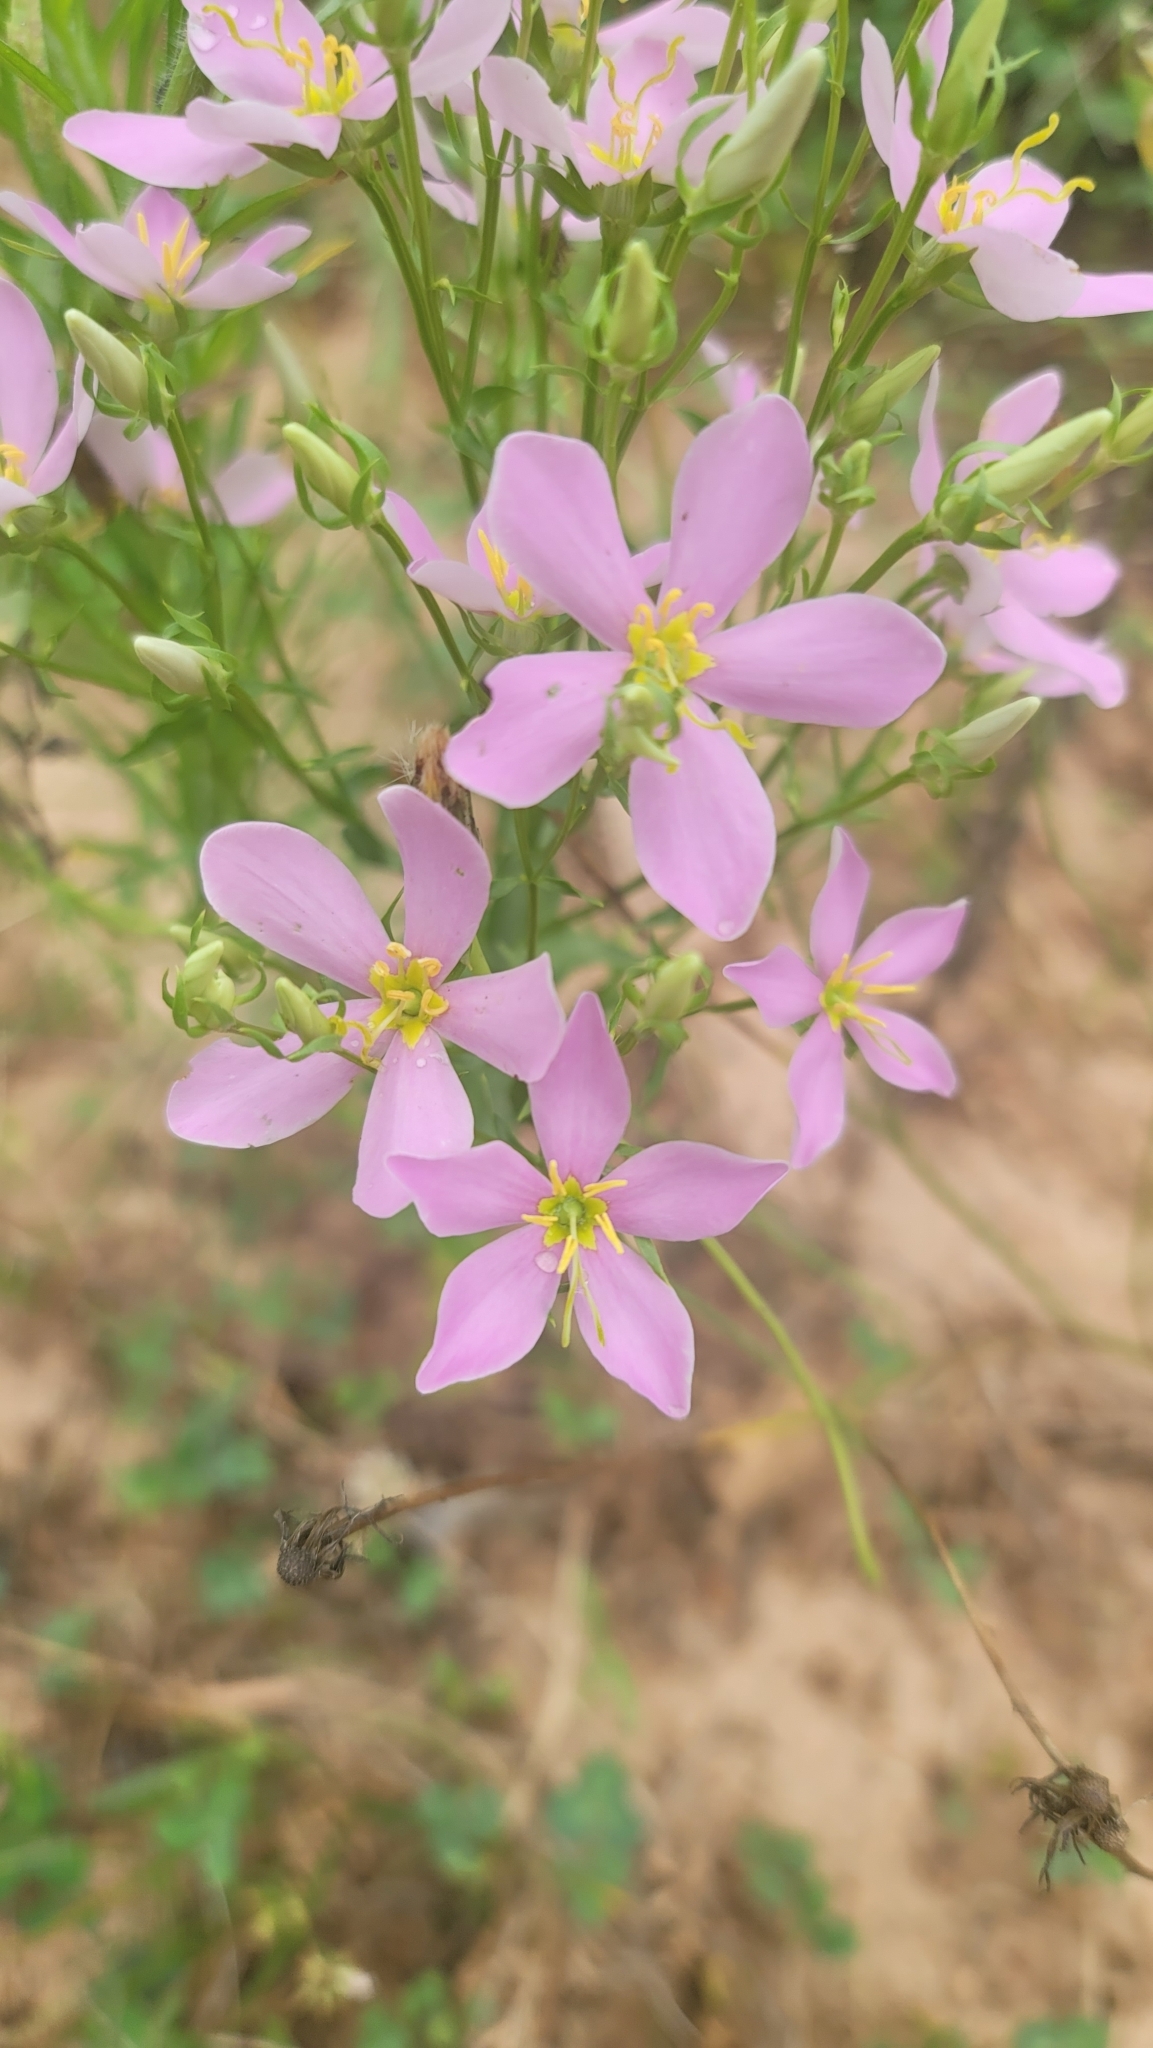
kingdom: Plantae
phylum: Tracheophyta
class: Magnoliopsida
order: Gentianales
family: Gentianaceae
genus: Sabatia
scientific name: Sabatia angularis
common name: Rose-pink
